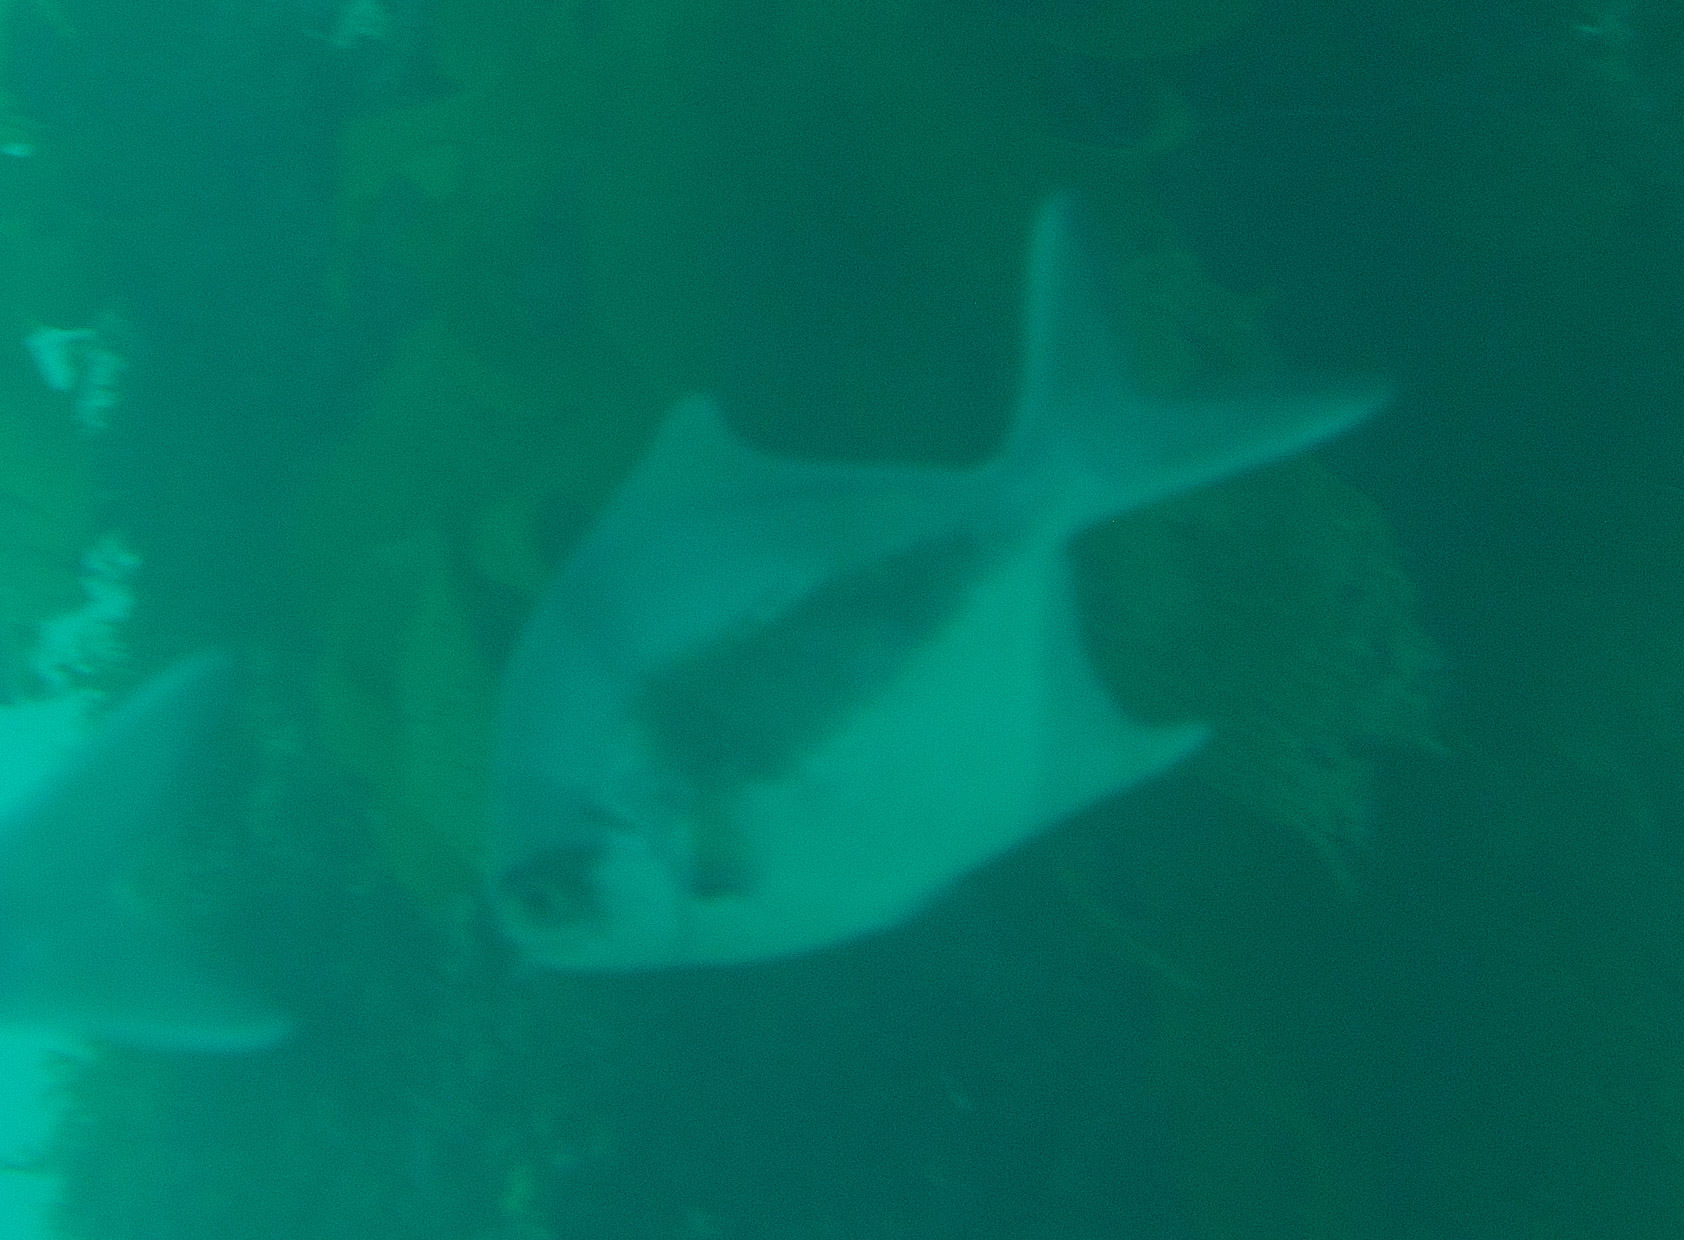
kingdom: Animalia
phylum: Chordata
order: Perciformes
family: Kyphosidae
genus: Scorpis
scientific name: Scorpis aequipinnis
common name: Sea sweep
